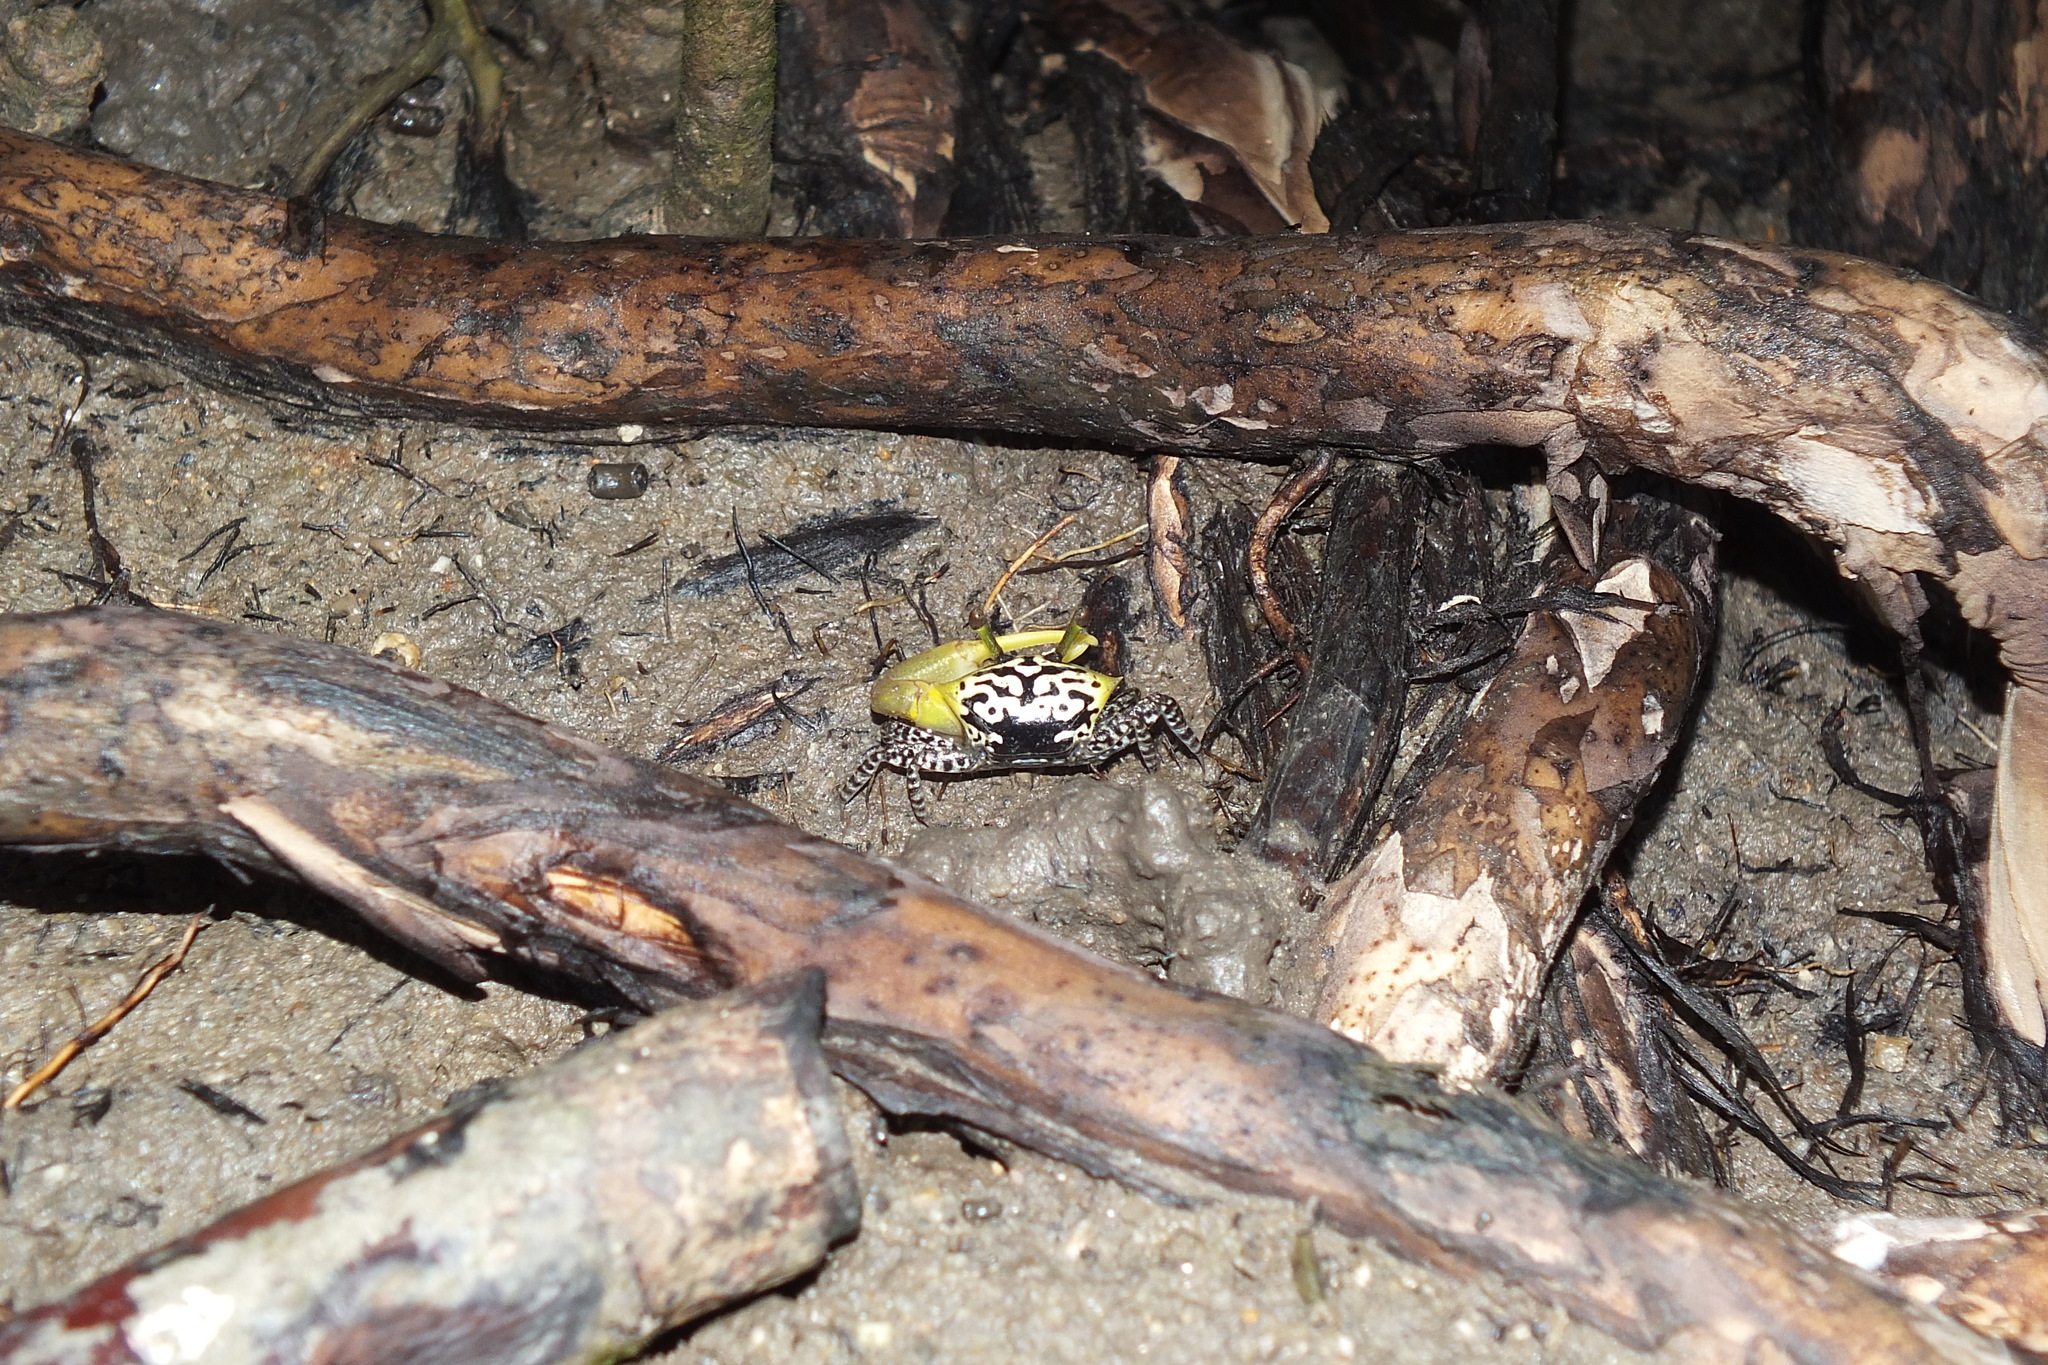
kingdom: Animalia
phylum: Arthropoda
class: Malacostraca
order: Decapoda
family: Ocypodidae
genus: Austruca
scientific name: Austruca triangularis
